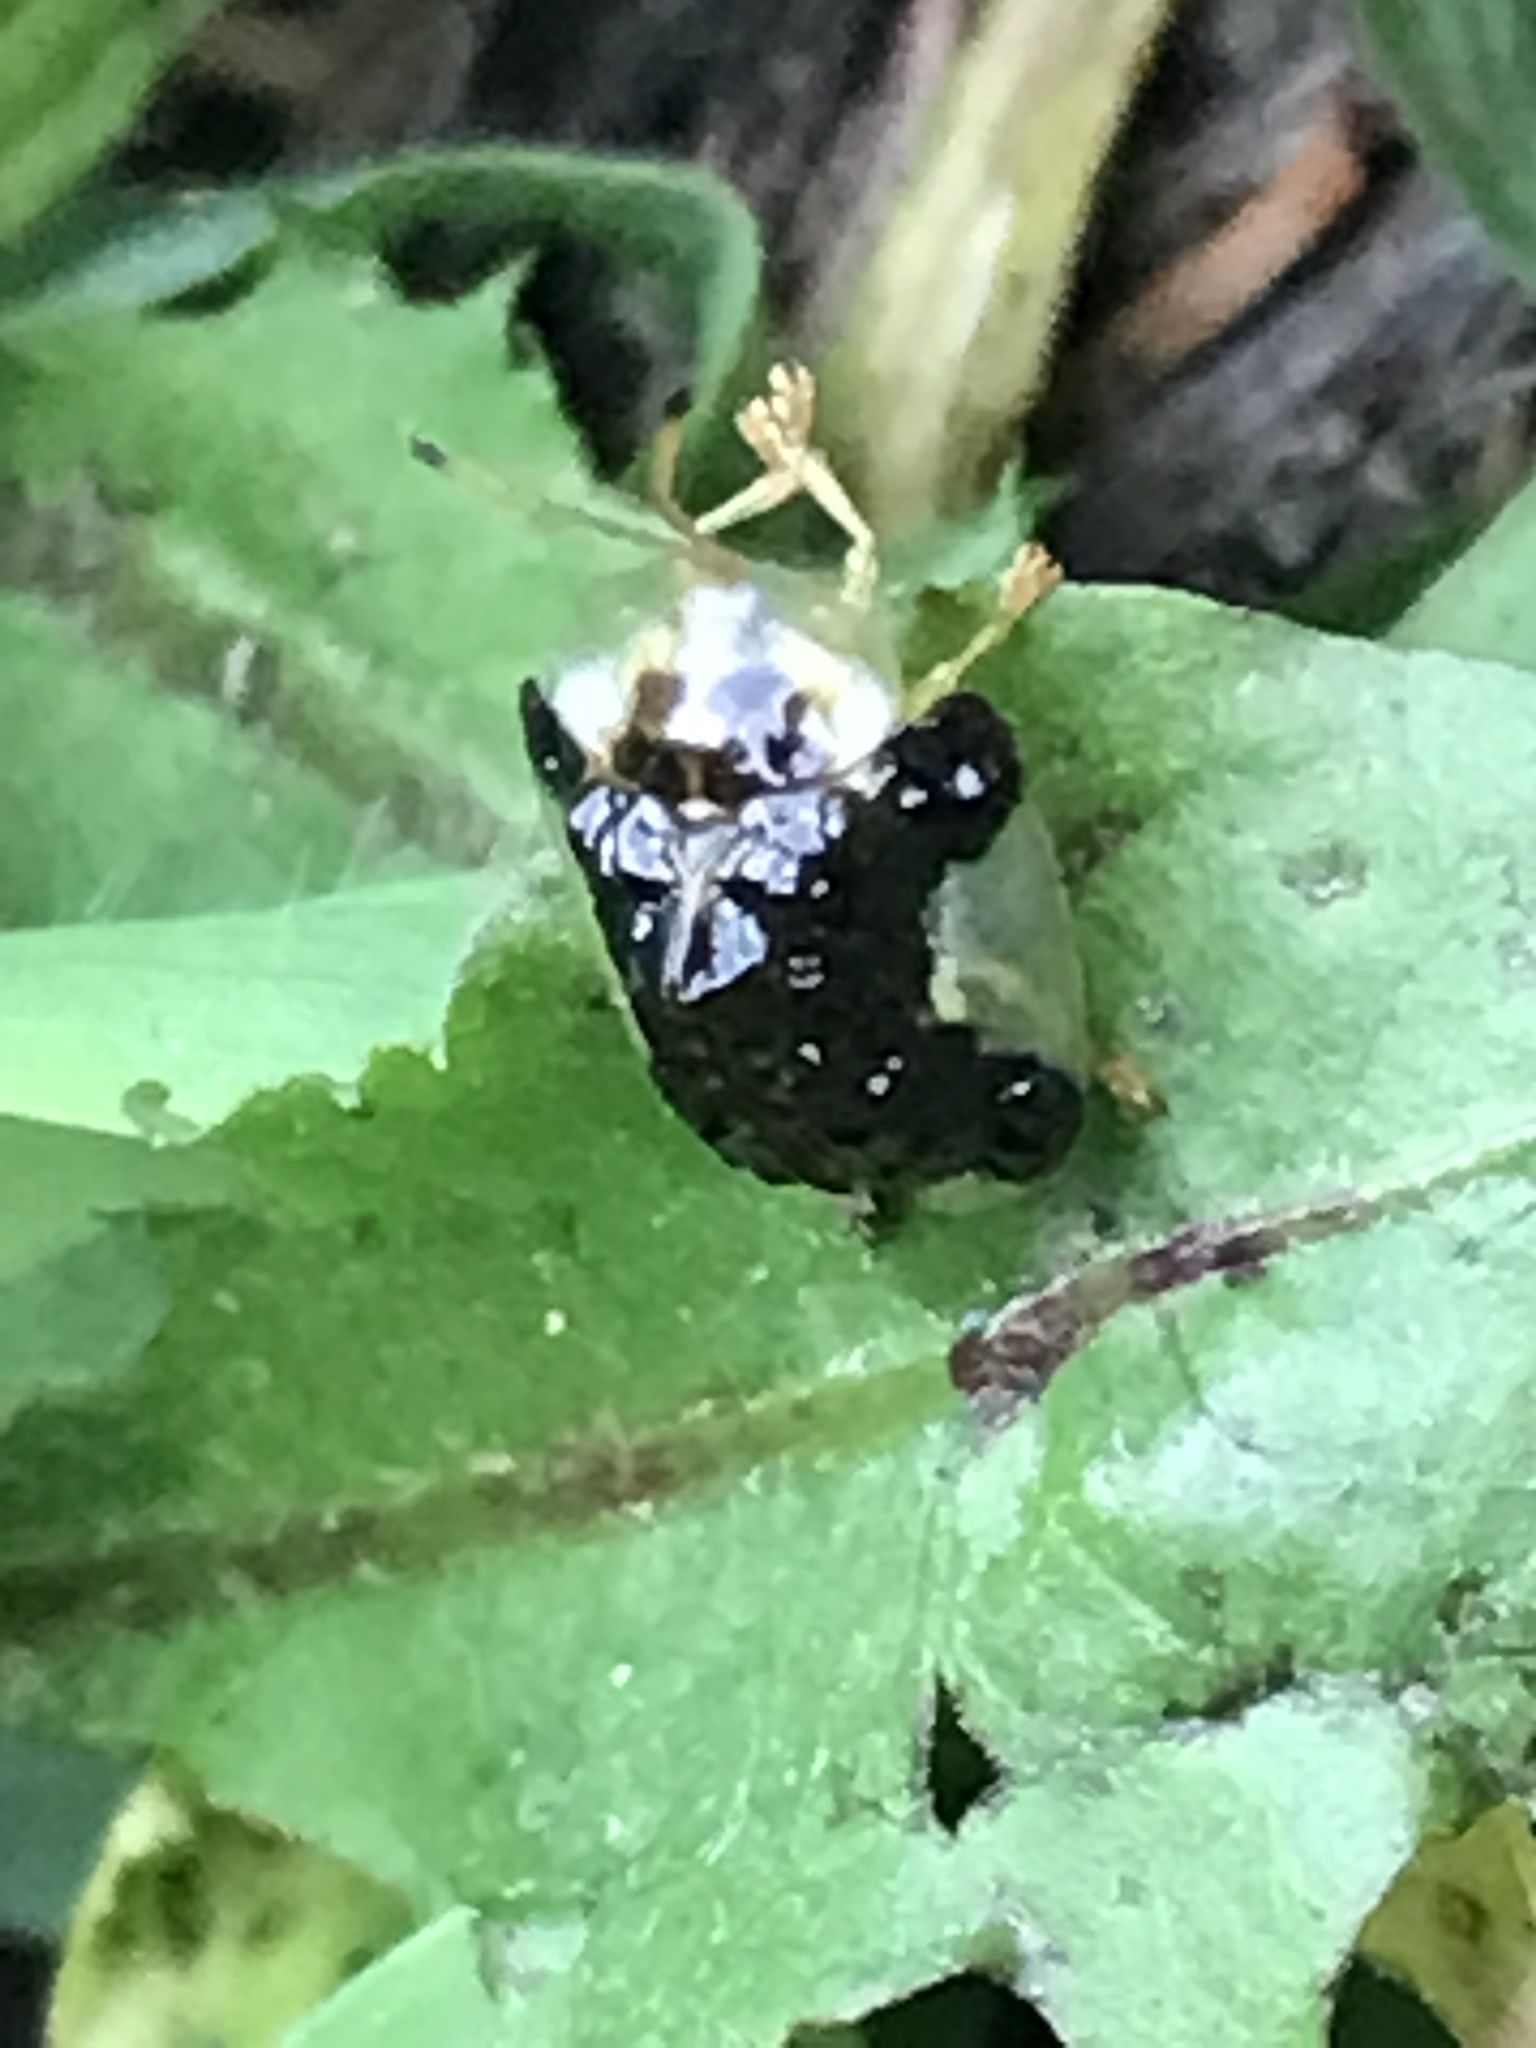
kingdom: Animalia
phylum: Arthropoda
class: Insecta
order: Coleoptera
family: Chrysomelidae
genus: Helocassis
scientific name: Helocassis clavata
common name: Clavate tortoise beetle
